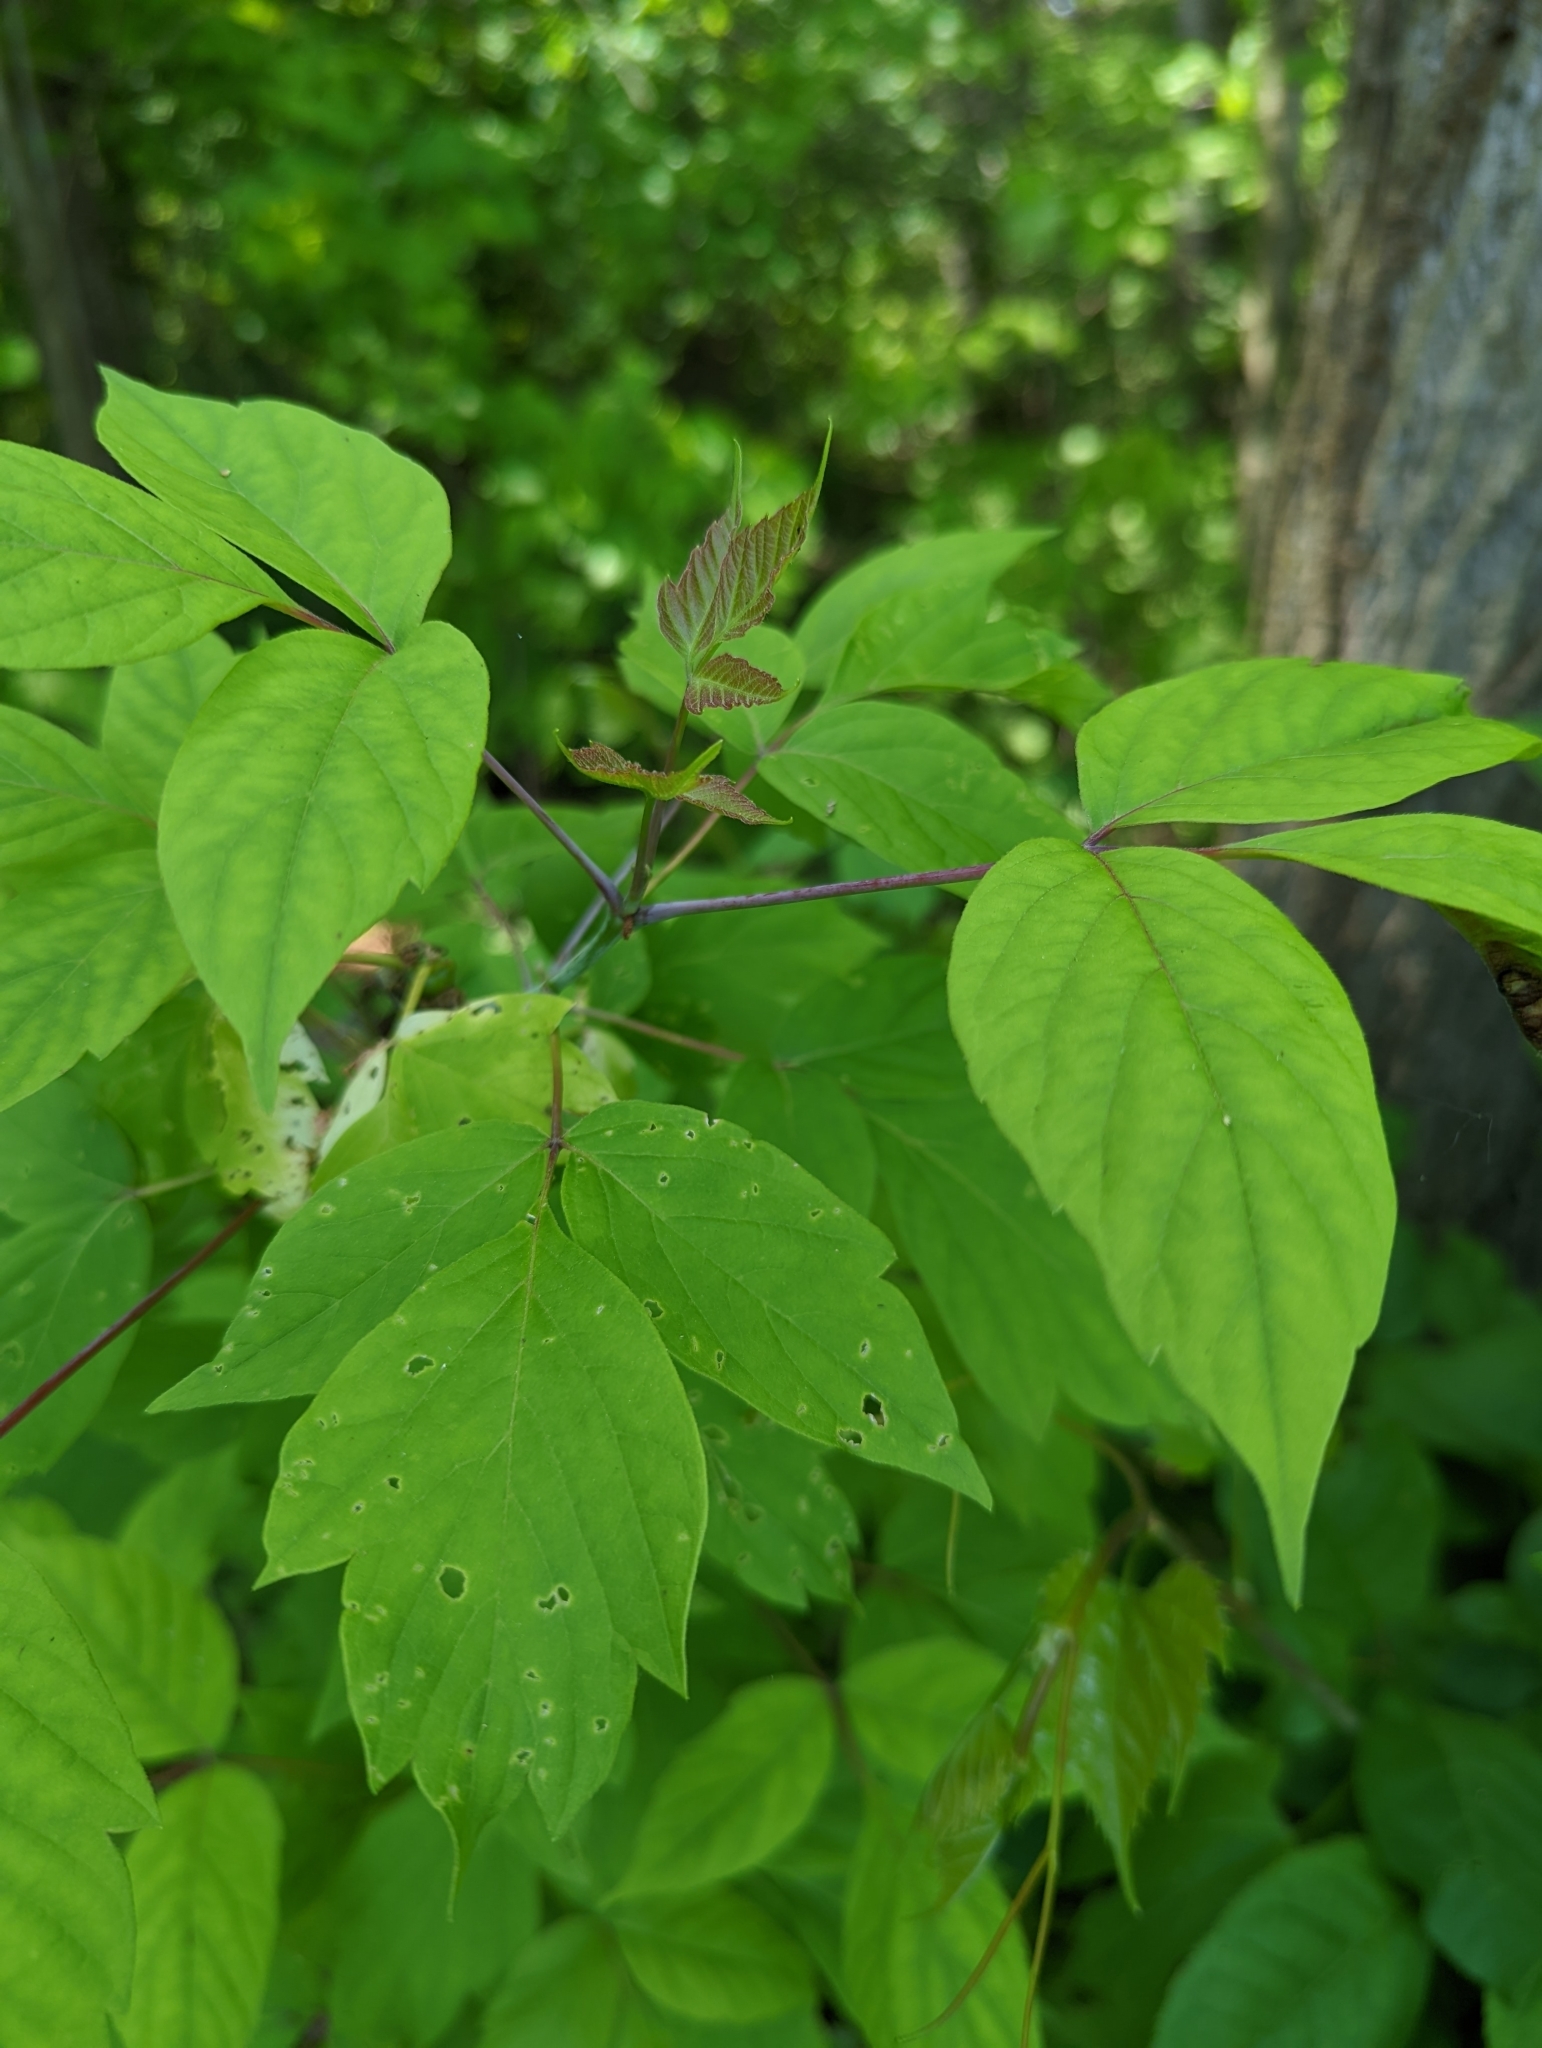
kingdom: Plantae
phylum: Tracheophyta
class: Magnoliopsida
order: Sapindales
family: Sapindaceae
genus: Acer
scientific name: Acer negundo
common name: Ashleaf maple
